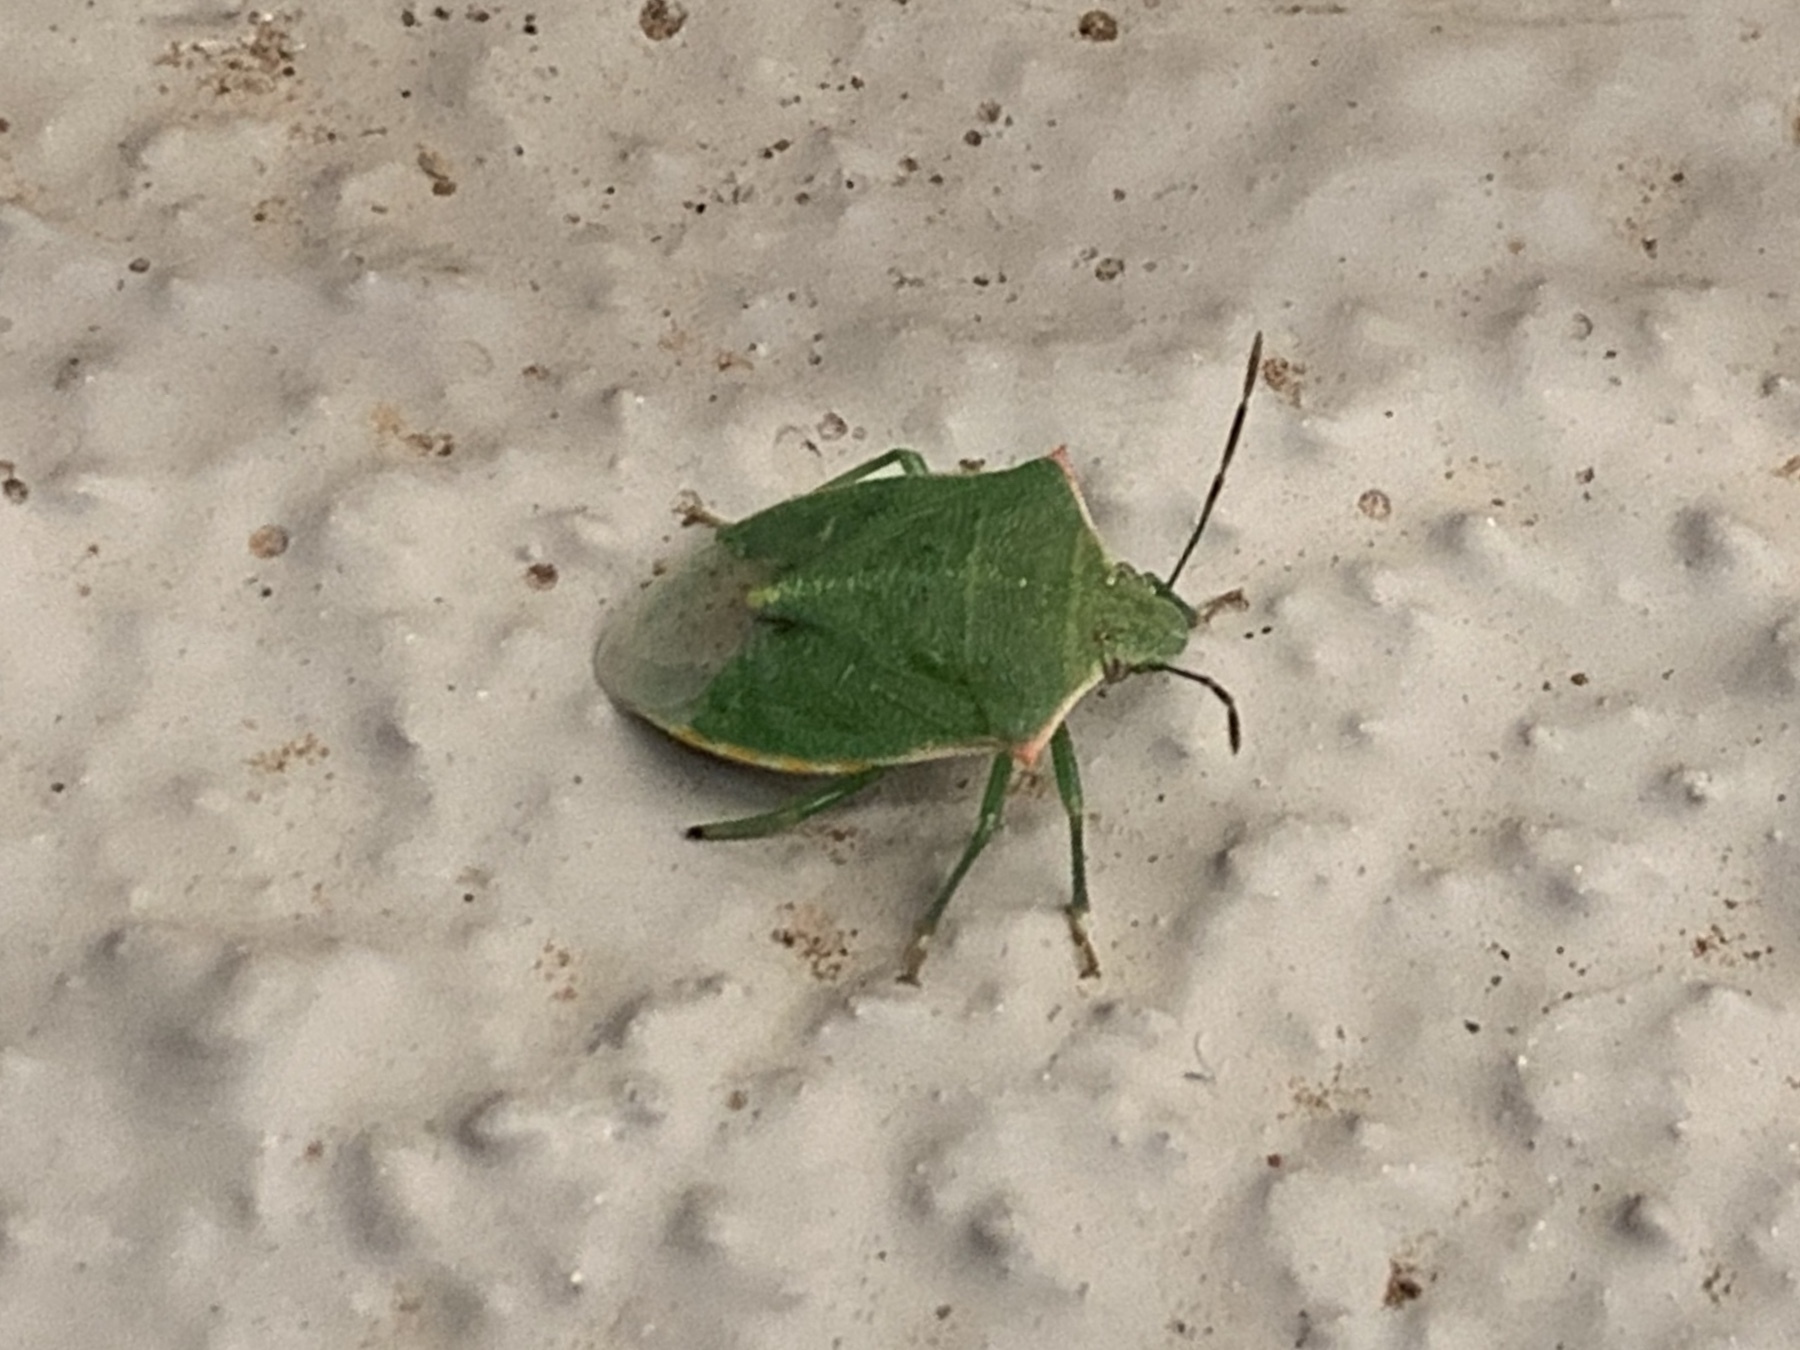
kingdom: Animalia
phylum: Arthropoda
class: Insecta
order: Hemiptera
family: Pentatomidae
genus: Thyanta
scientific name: Thyanta custator
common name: Stink bug
